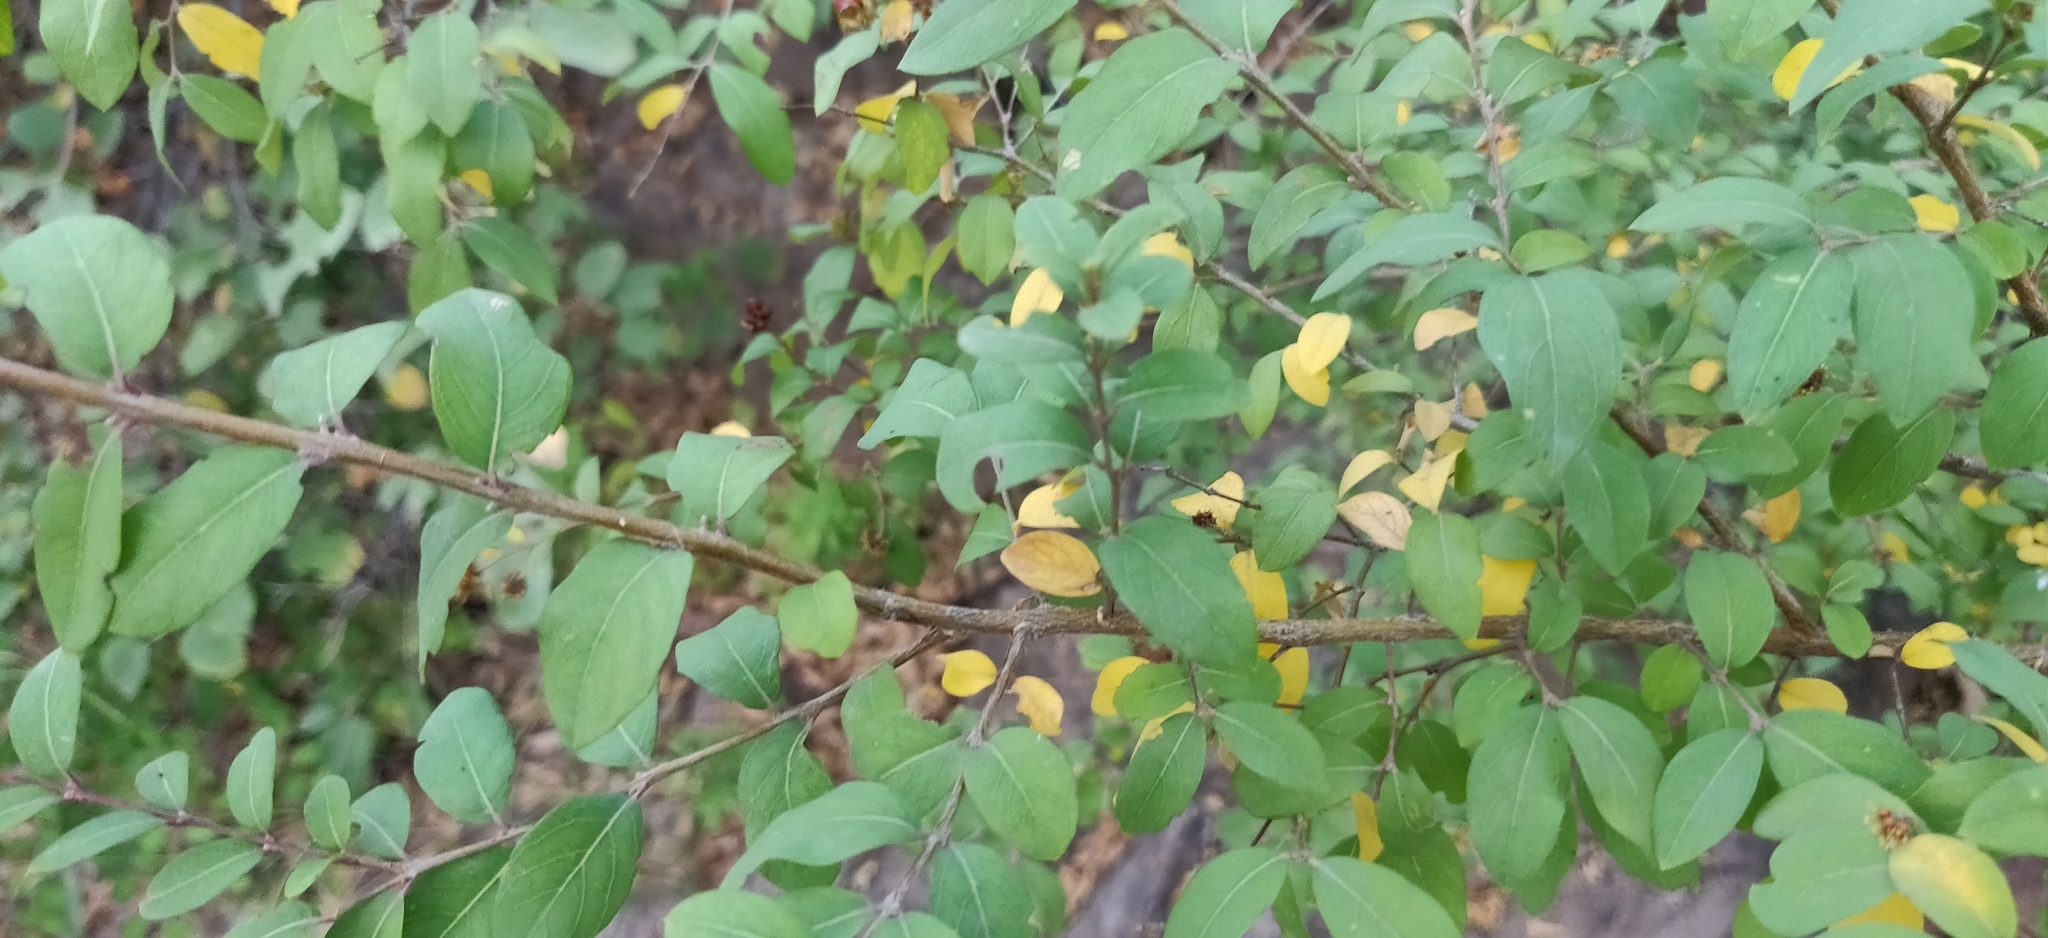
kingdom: Plantae
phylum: Tracheophyta
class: Magnoliopsida
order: Myrtales
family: Combretaceae
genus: Terminalia
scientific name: Terminalia pendula
